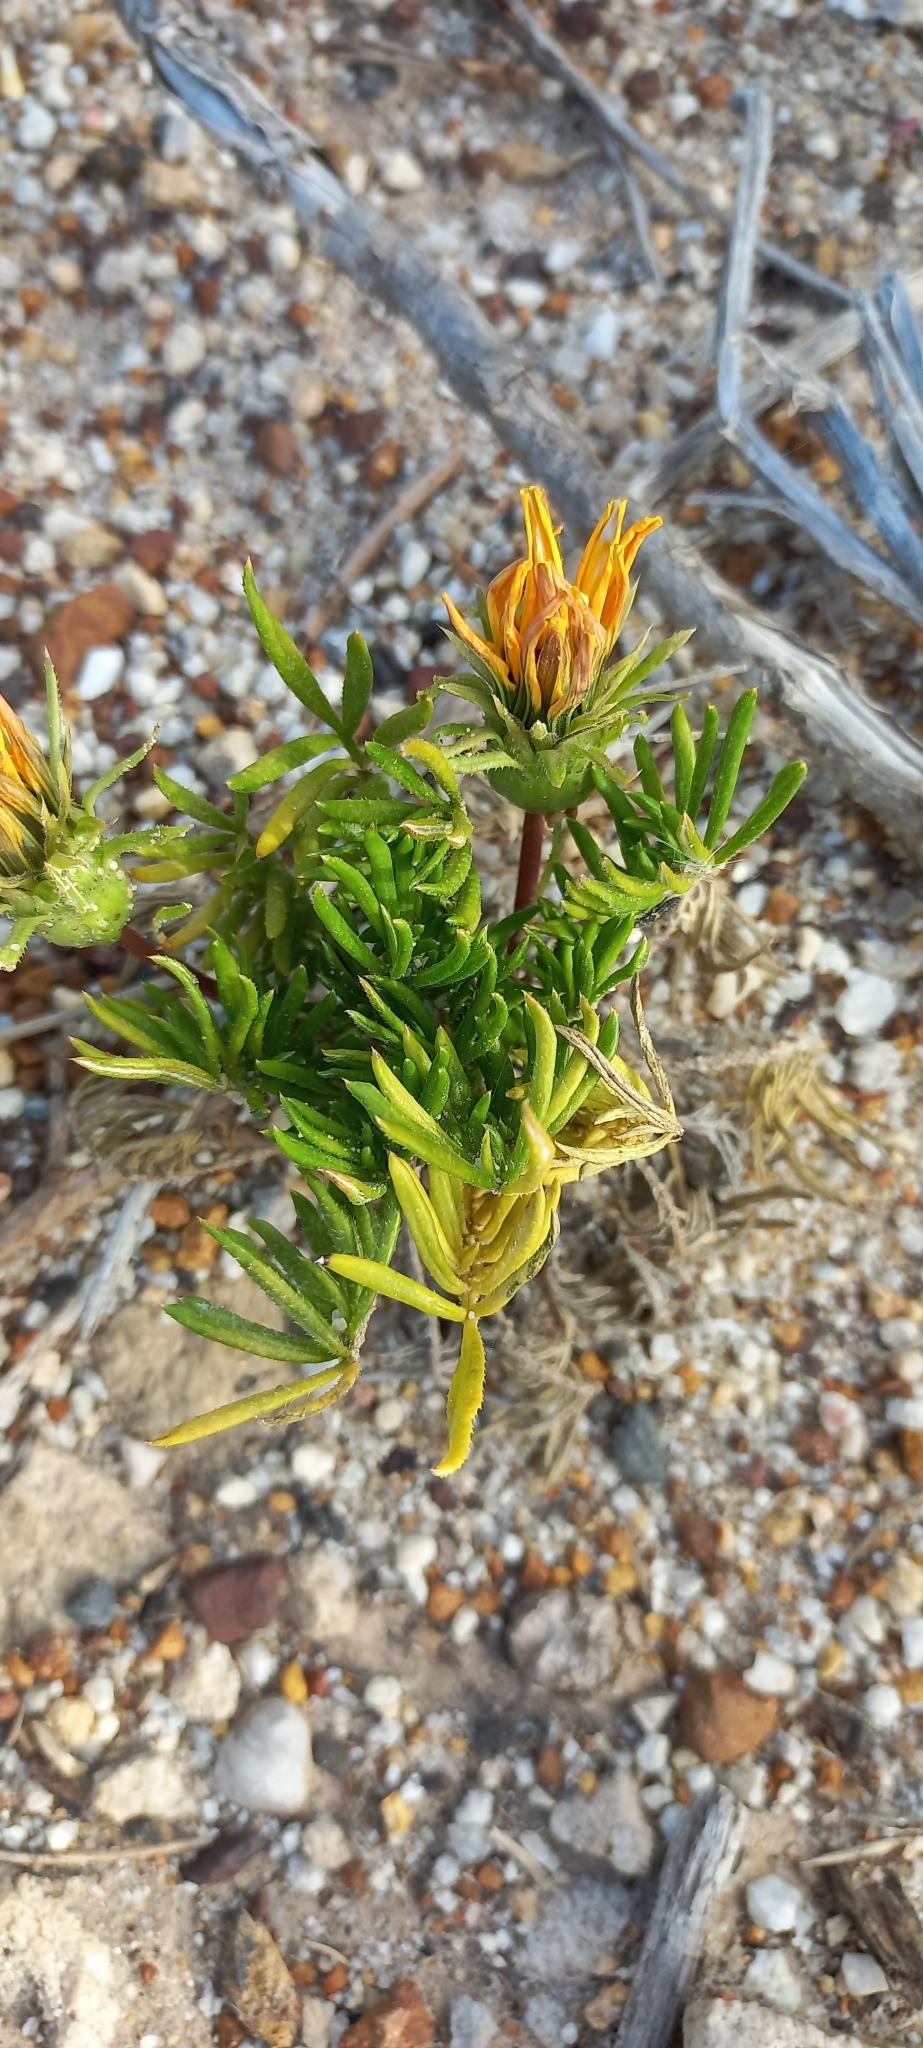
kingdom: Plantae
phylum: Tracheophyta
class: Magnoliopsida
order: Asterales
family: Asteraceae
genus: Gazania
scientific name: Gazania pectinata
